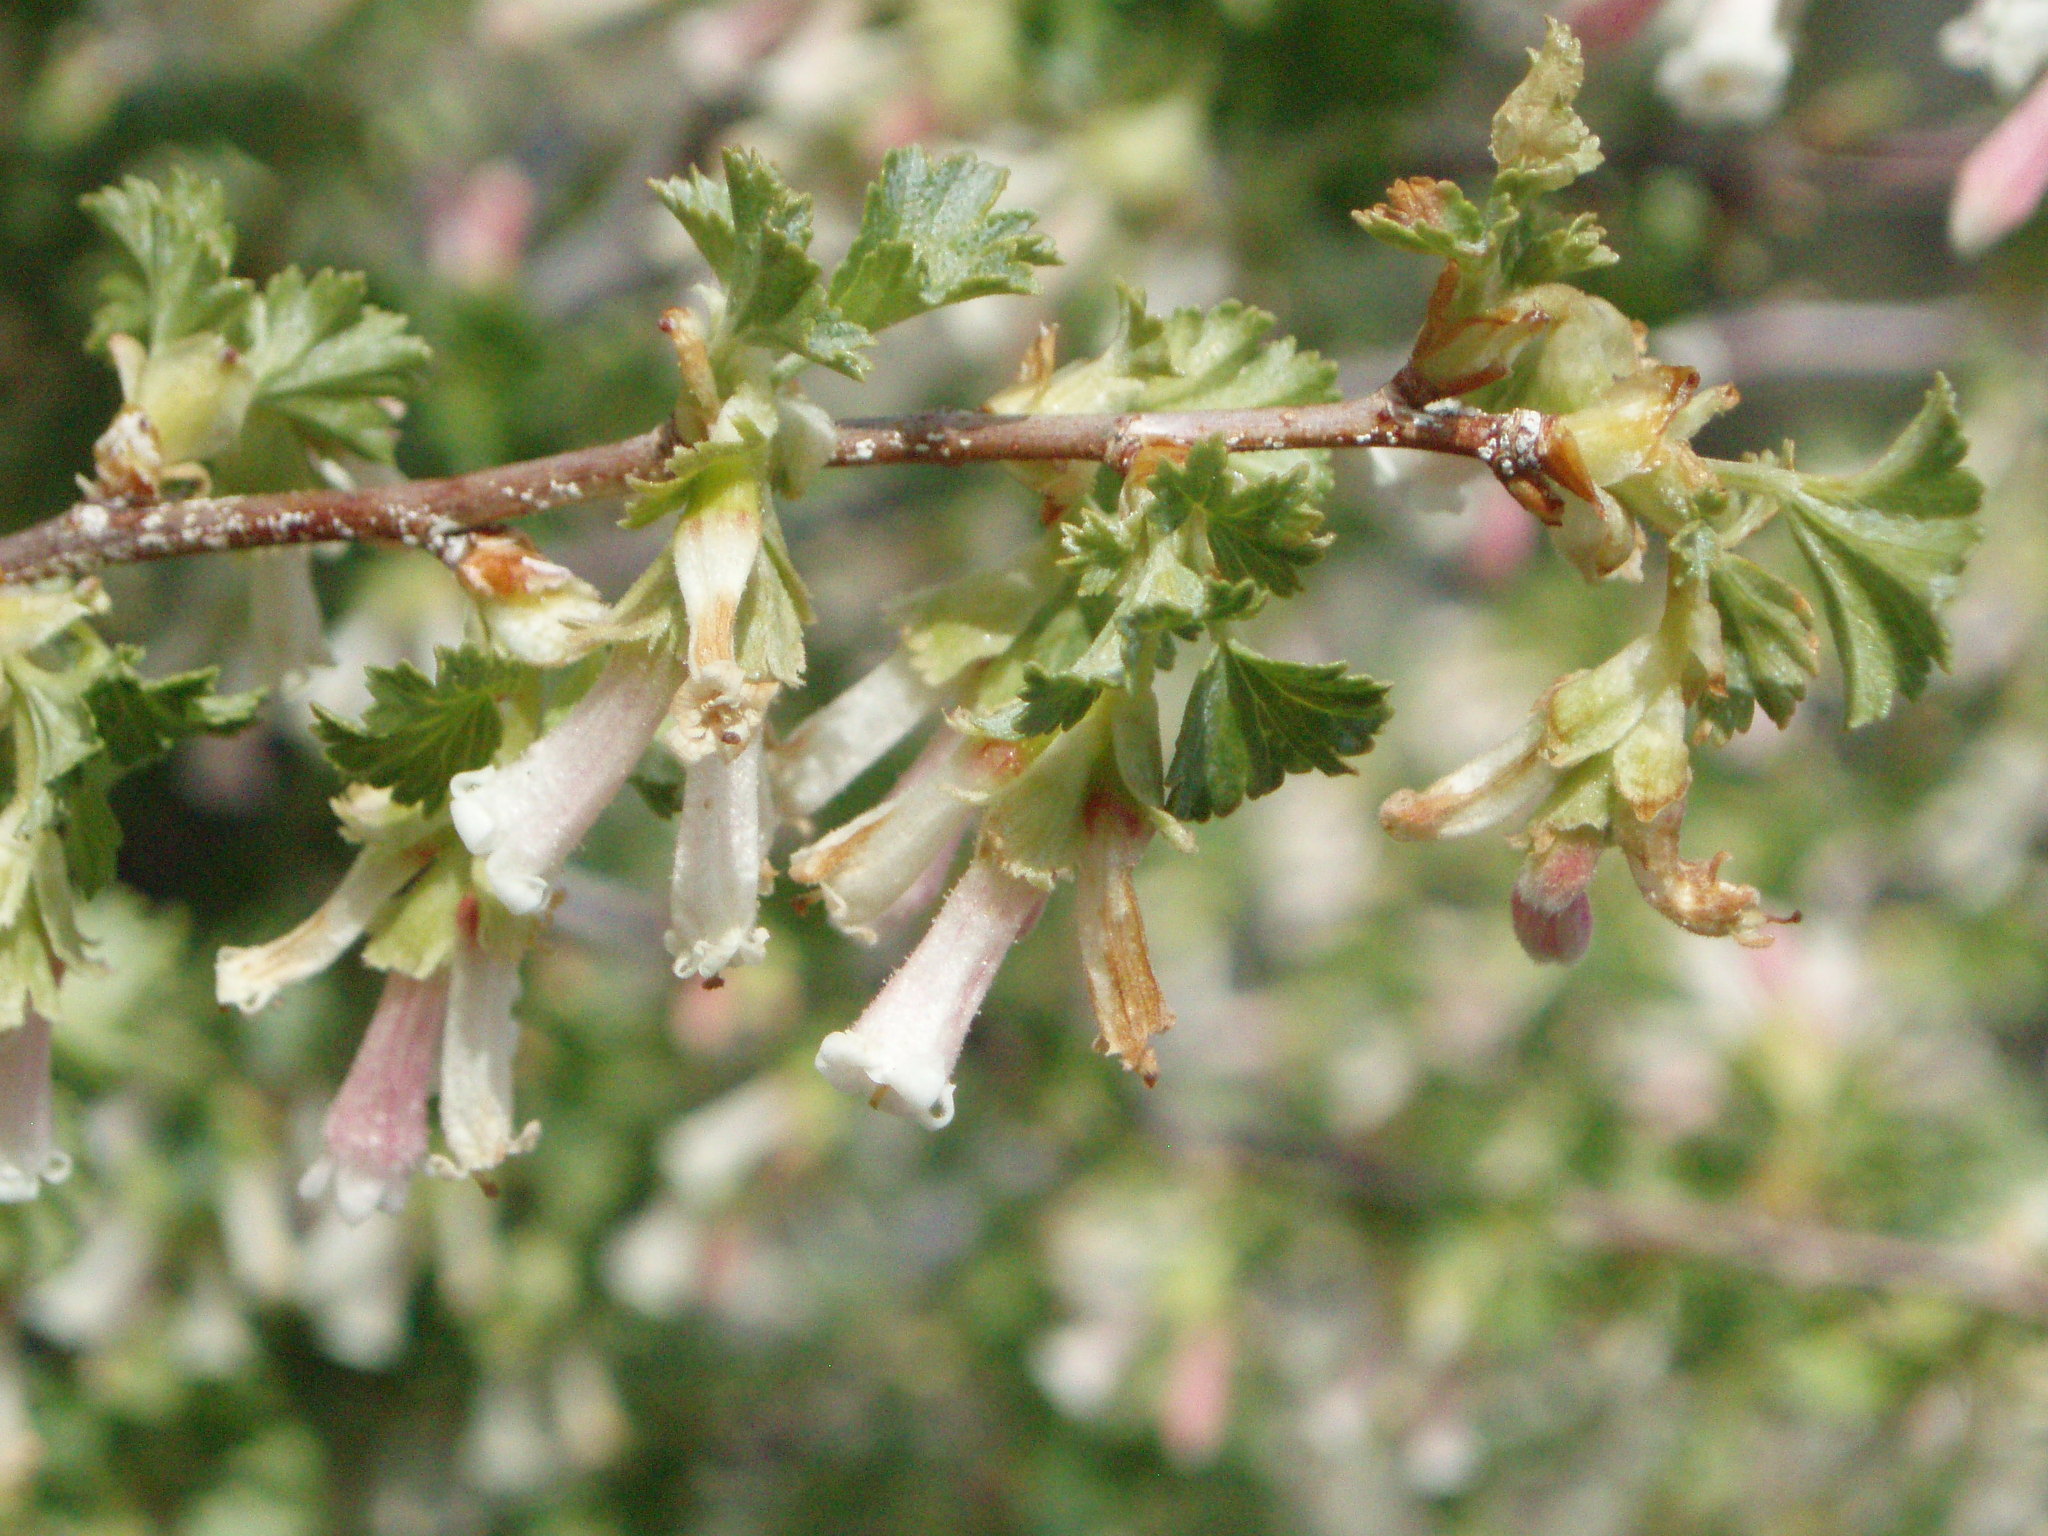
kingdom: Plantae
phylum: Tracheophyta
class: Magnoliopsida
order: Saxifragales
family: Grossulariaceae
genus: Ribes
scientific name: Ribes cereum
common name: Wax currant
